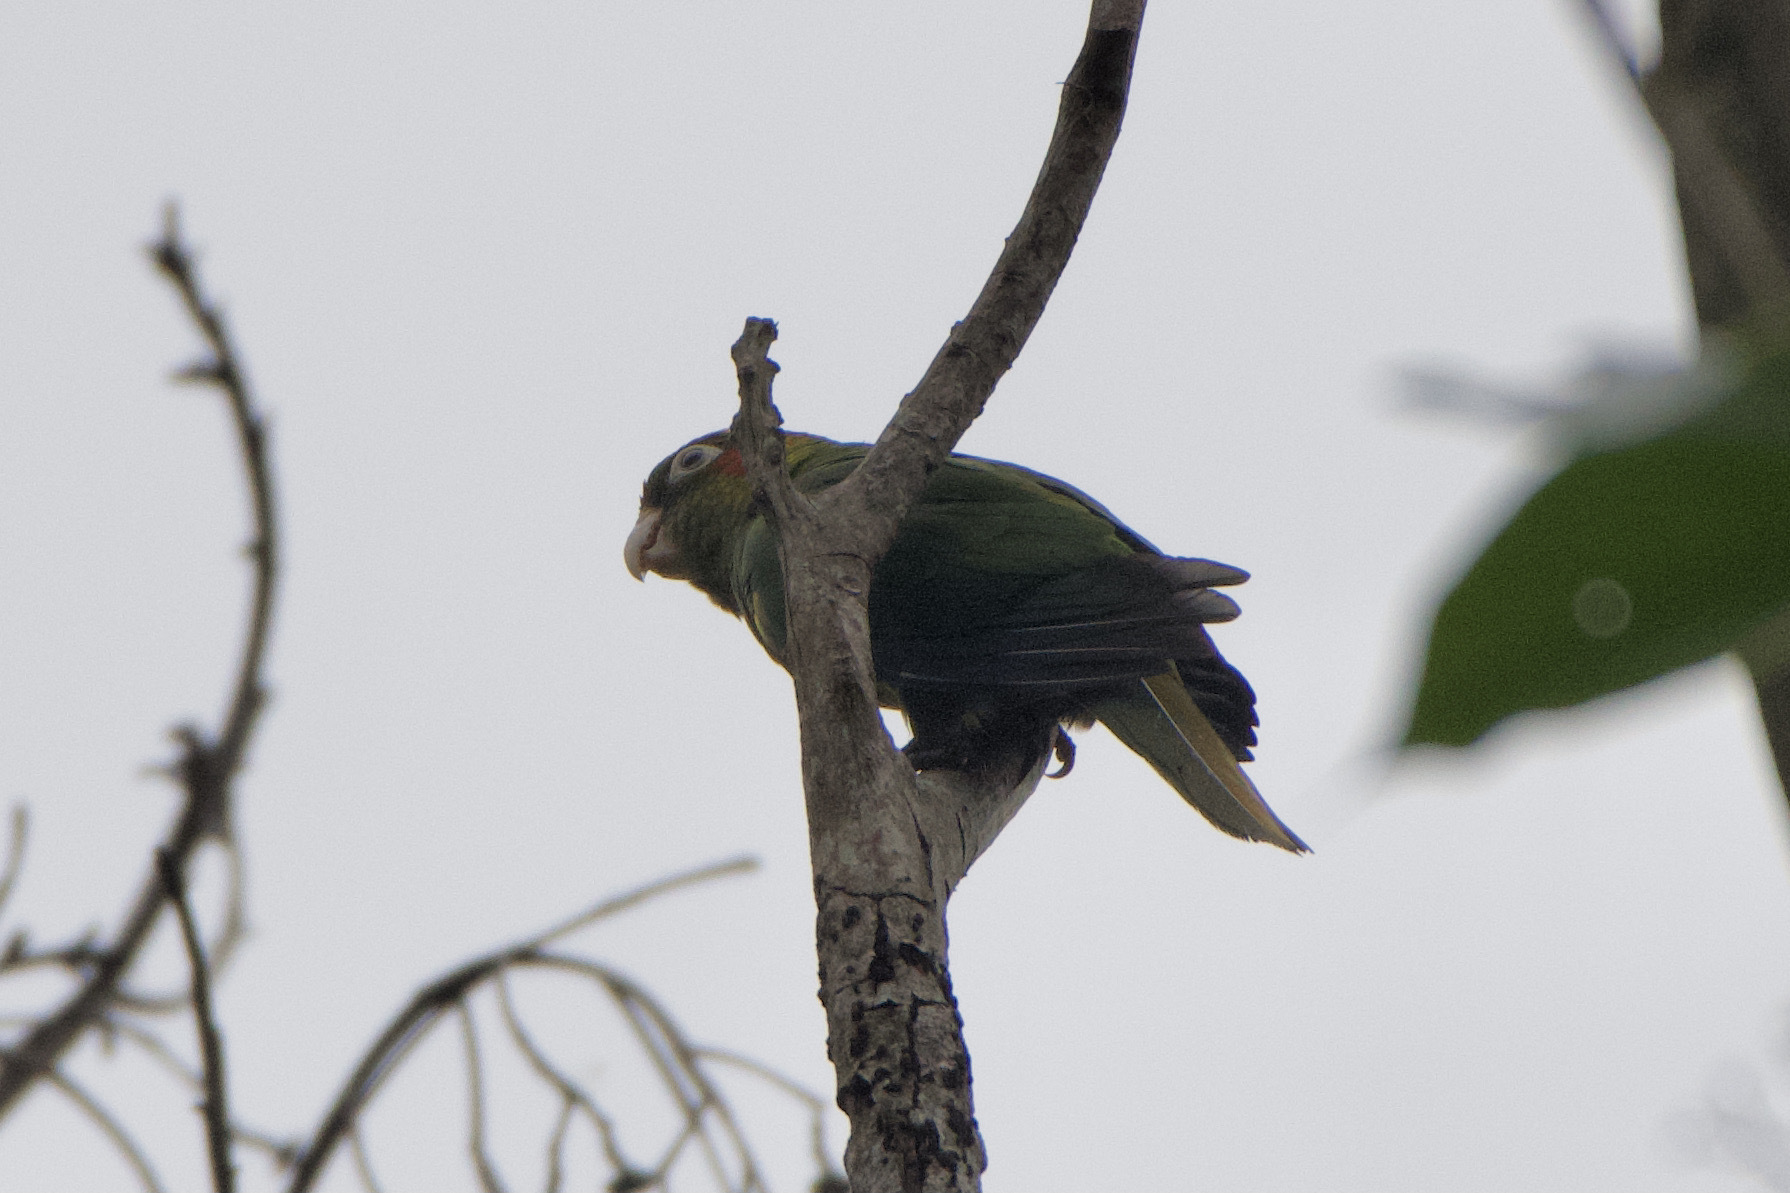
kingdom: Animalia
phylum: Chordata
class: Aves
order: Psittaciformes
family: Psittacidae
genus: Pyrrhura
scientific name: Pyrrhura hoffmanni
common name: Sulphur-winged parakeet
